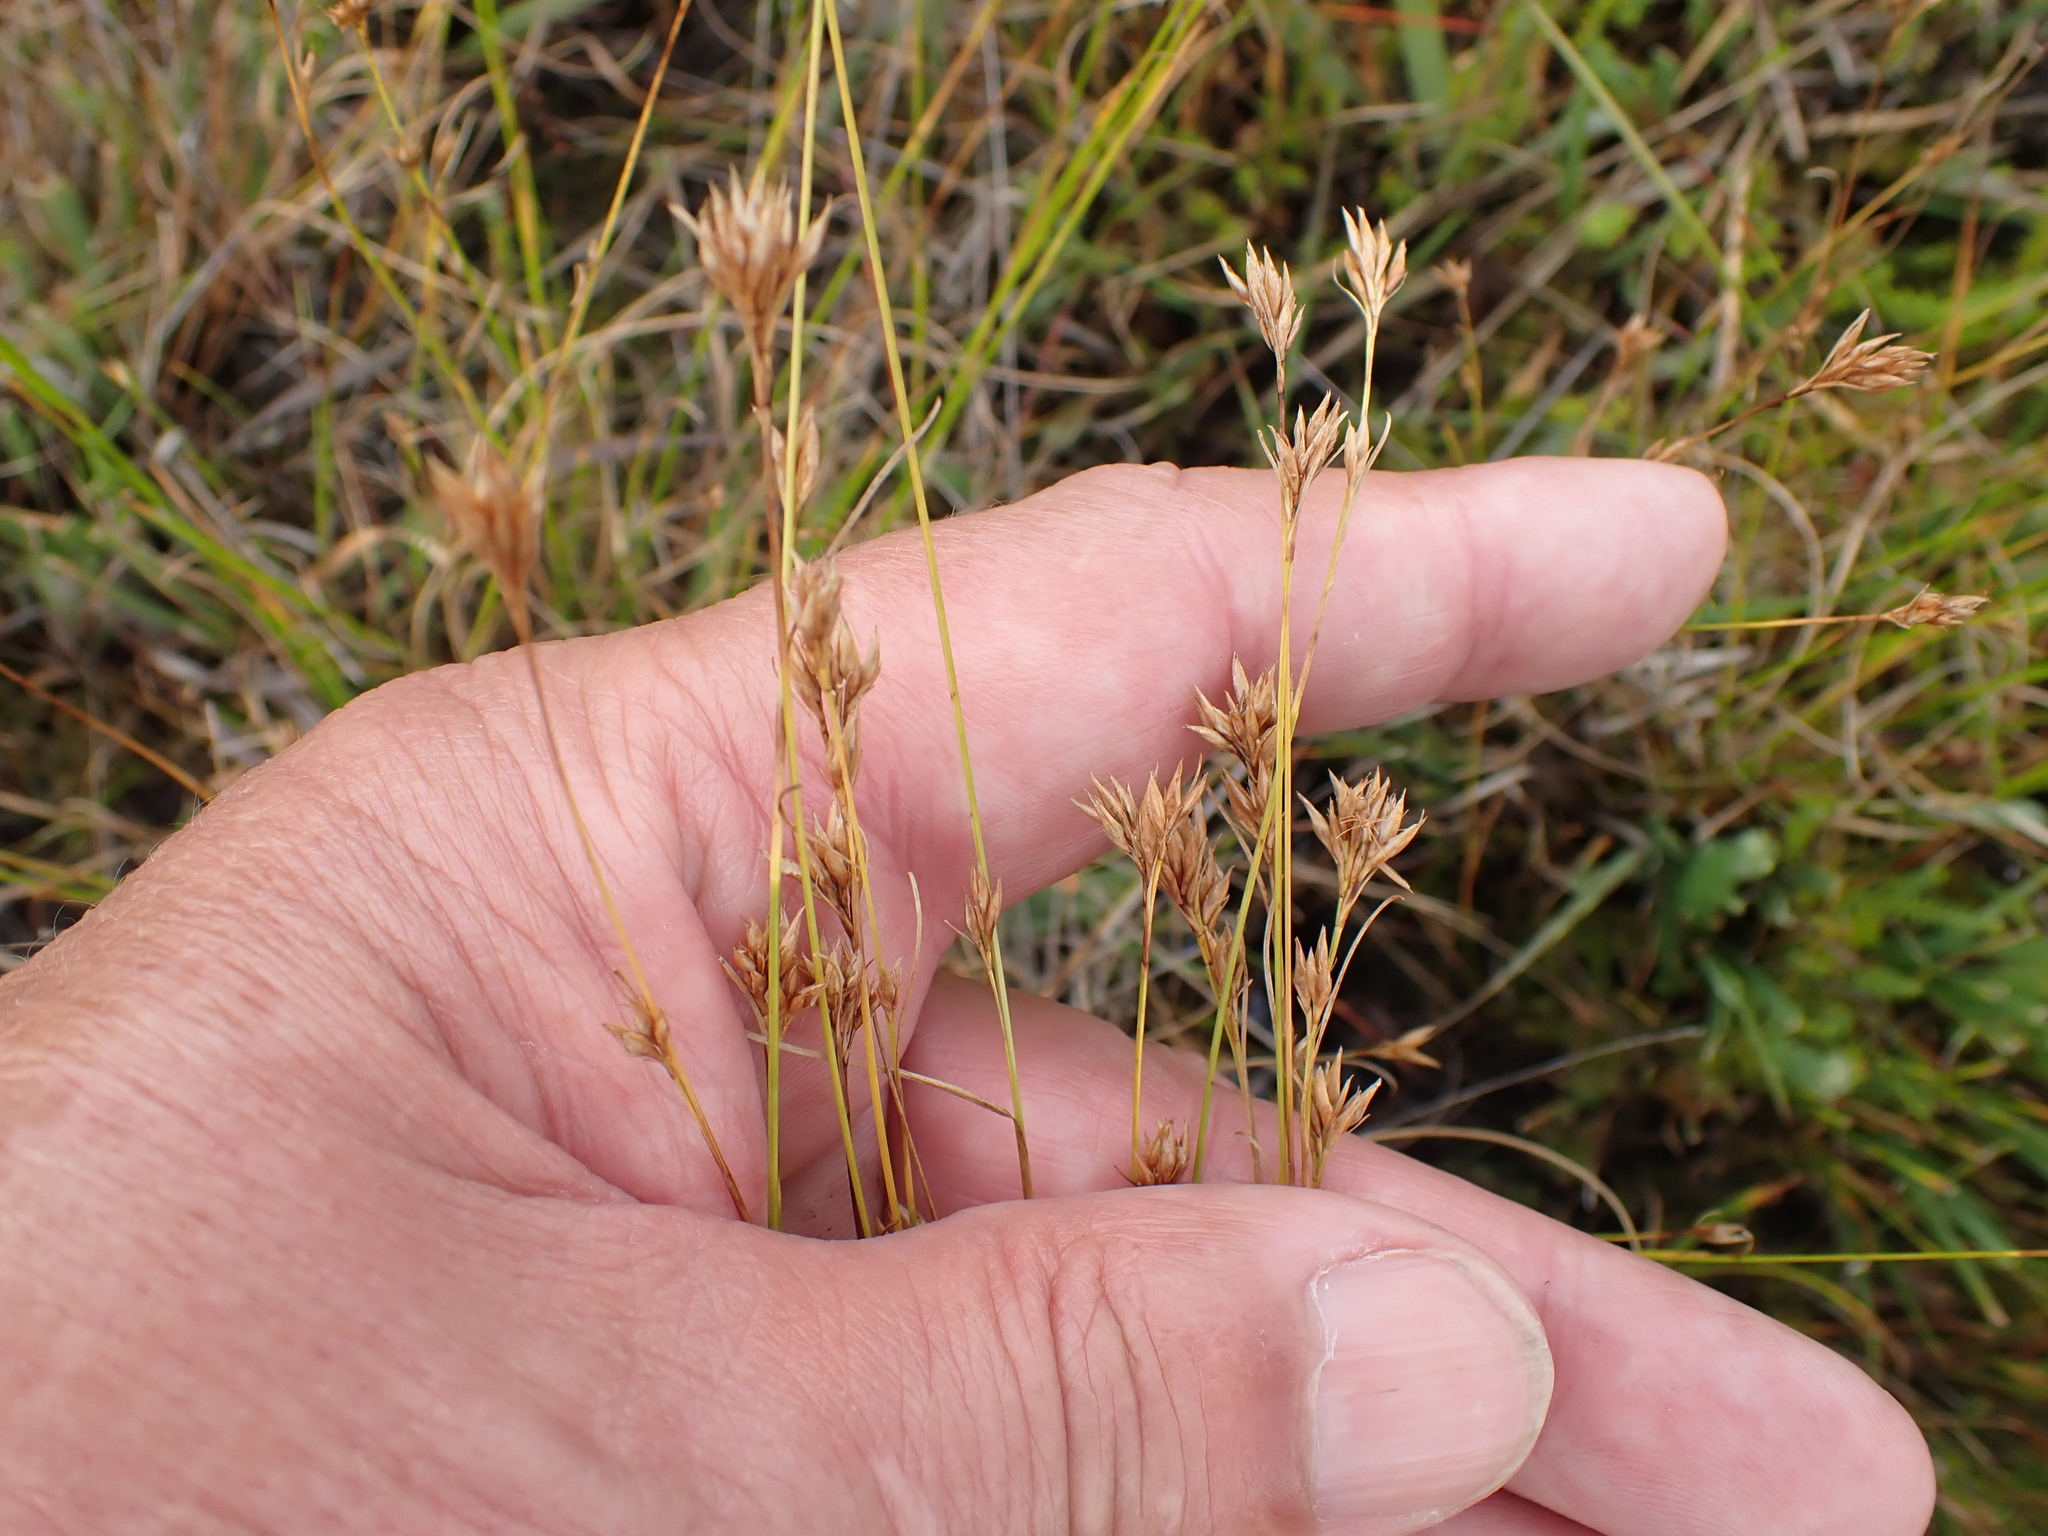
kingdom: Plantae
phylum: Tracheophyta
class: Liliopsida
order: Poales
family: Cyperaceae
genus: Rhynchospora
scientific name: Rhynchospora alba
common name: White beak-sedge
